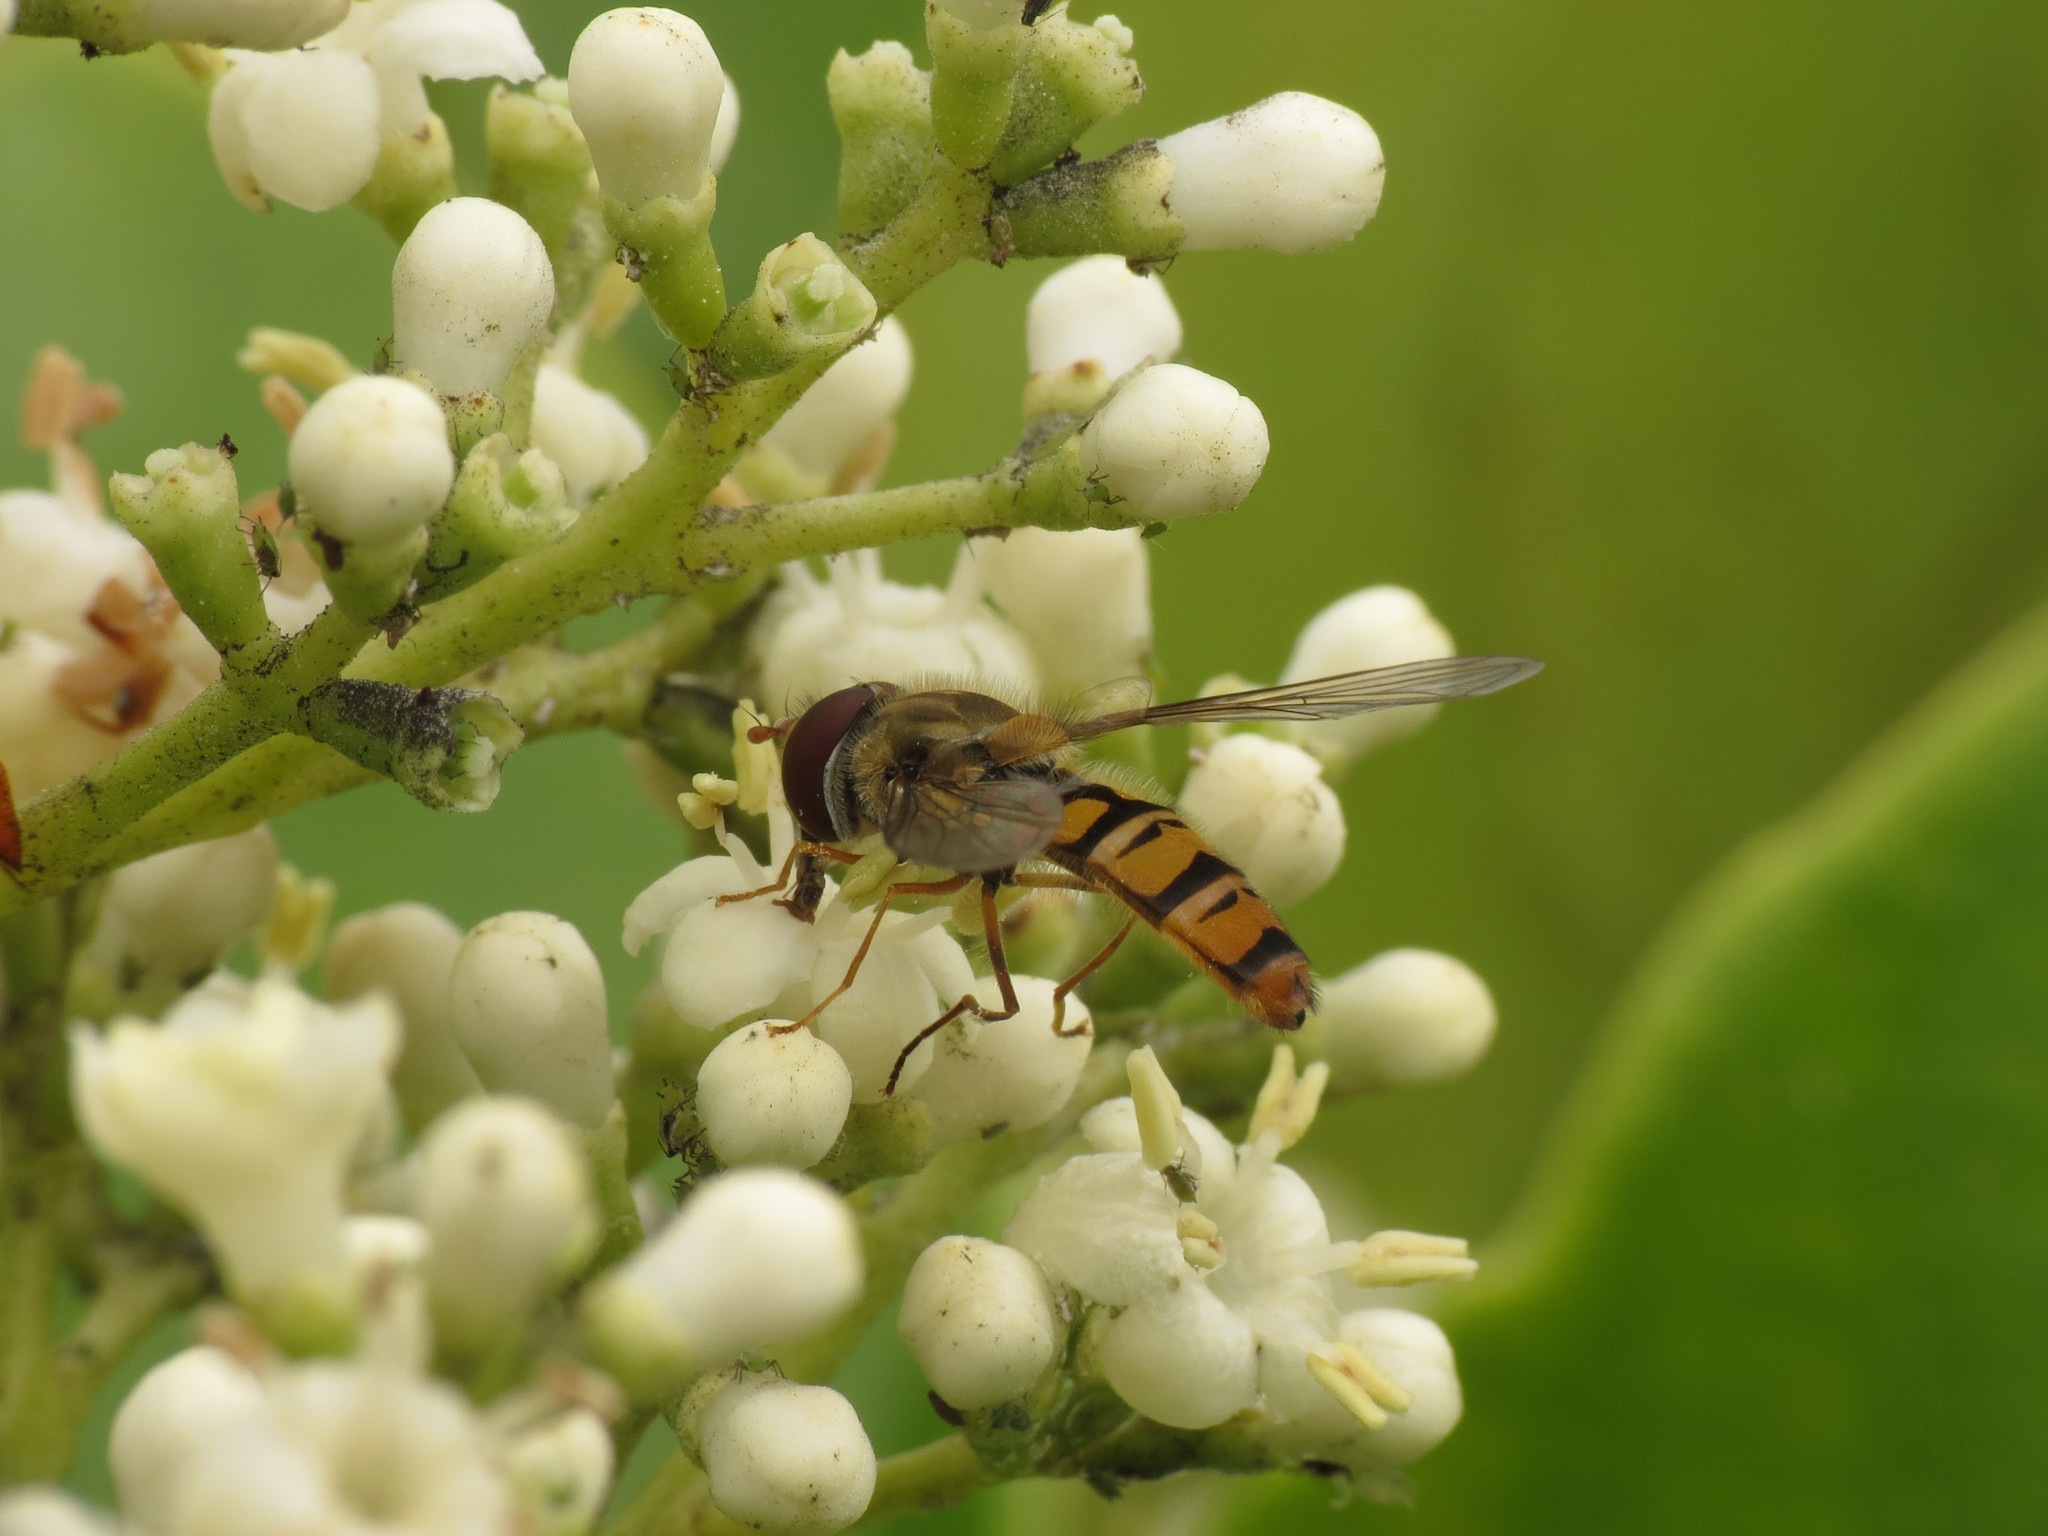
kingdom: Animalia
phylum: Arthropoda
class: Insecta
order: Diptera
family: Syrphidae
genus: Episyrphus
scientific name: Episyrphus balteatus
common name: Marmalade hoverfly
